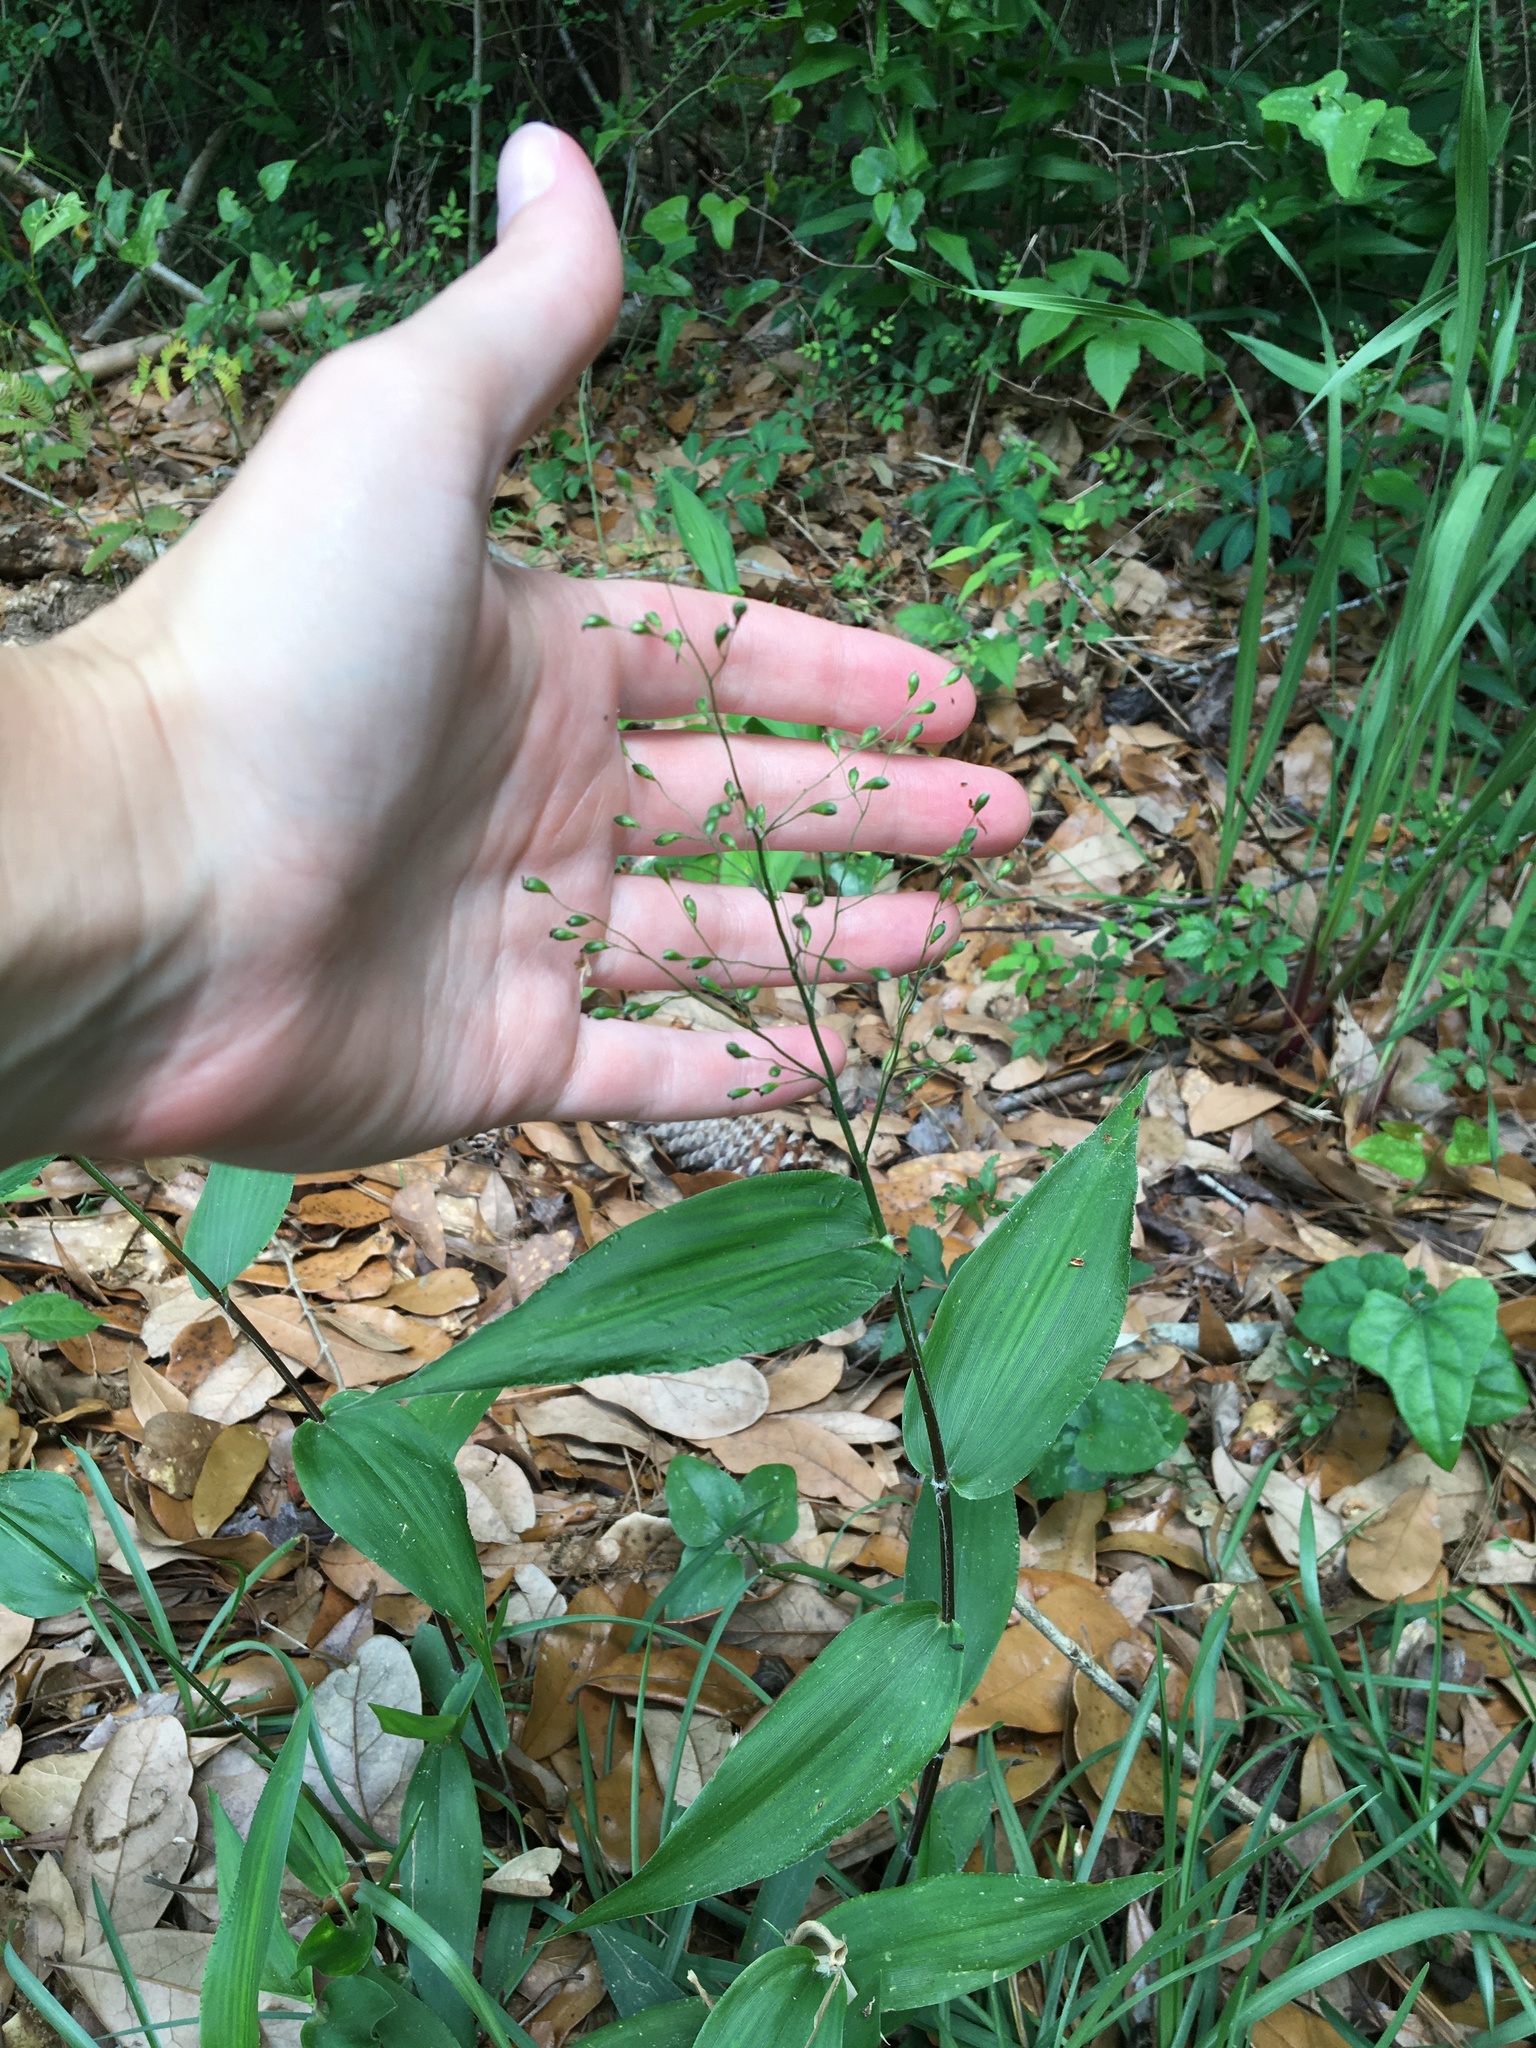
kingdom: Plantae
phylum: Tracheophyta
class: Liliopsida
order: Poales
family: Poaceae
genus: Dichanthelium
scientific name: Dichanthelium latifolium
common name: Broad-leaved panicgrass
